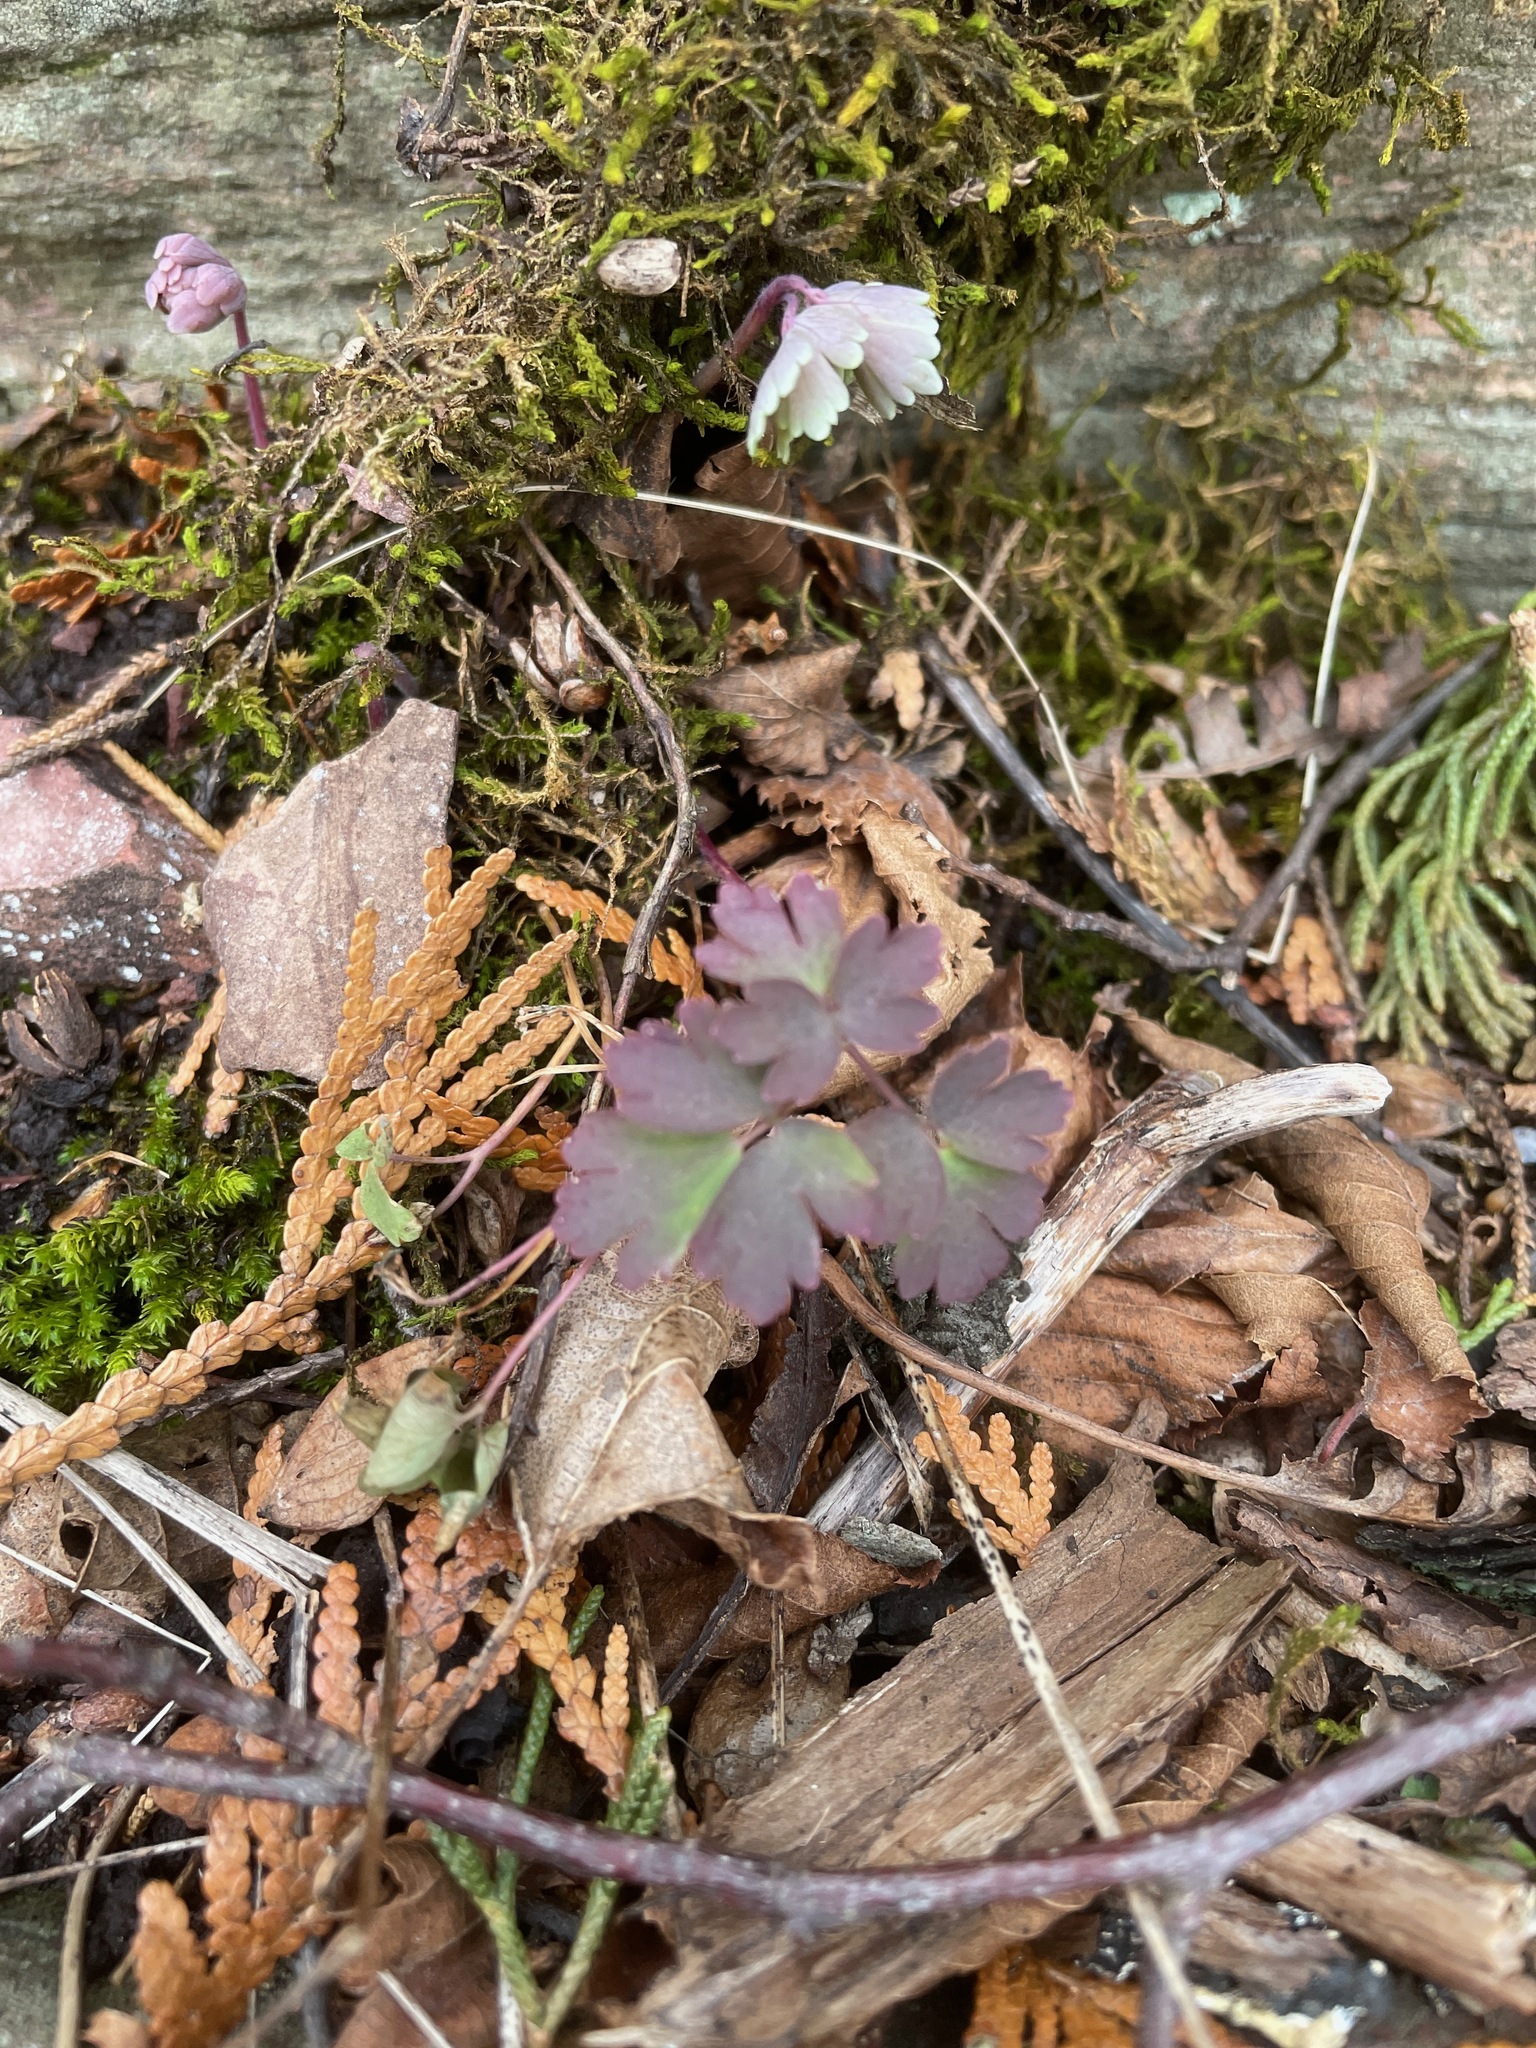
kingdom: Plantae
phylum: Tracheophyta
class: Magnoliopsida
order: Ranunculales
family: Ranunculaceae
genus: Aquilegia
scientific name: Aquilegia canadensis
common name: American columbine
